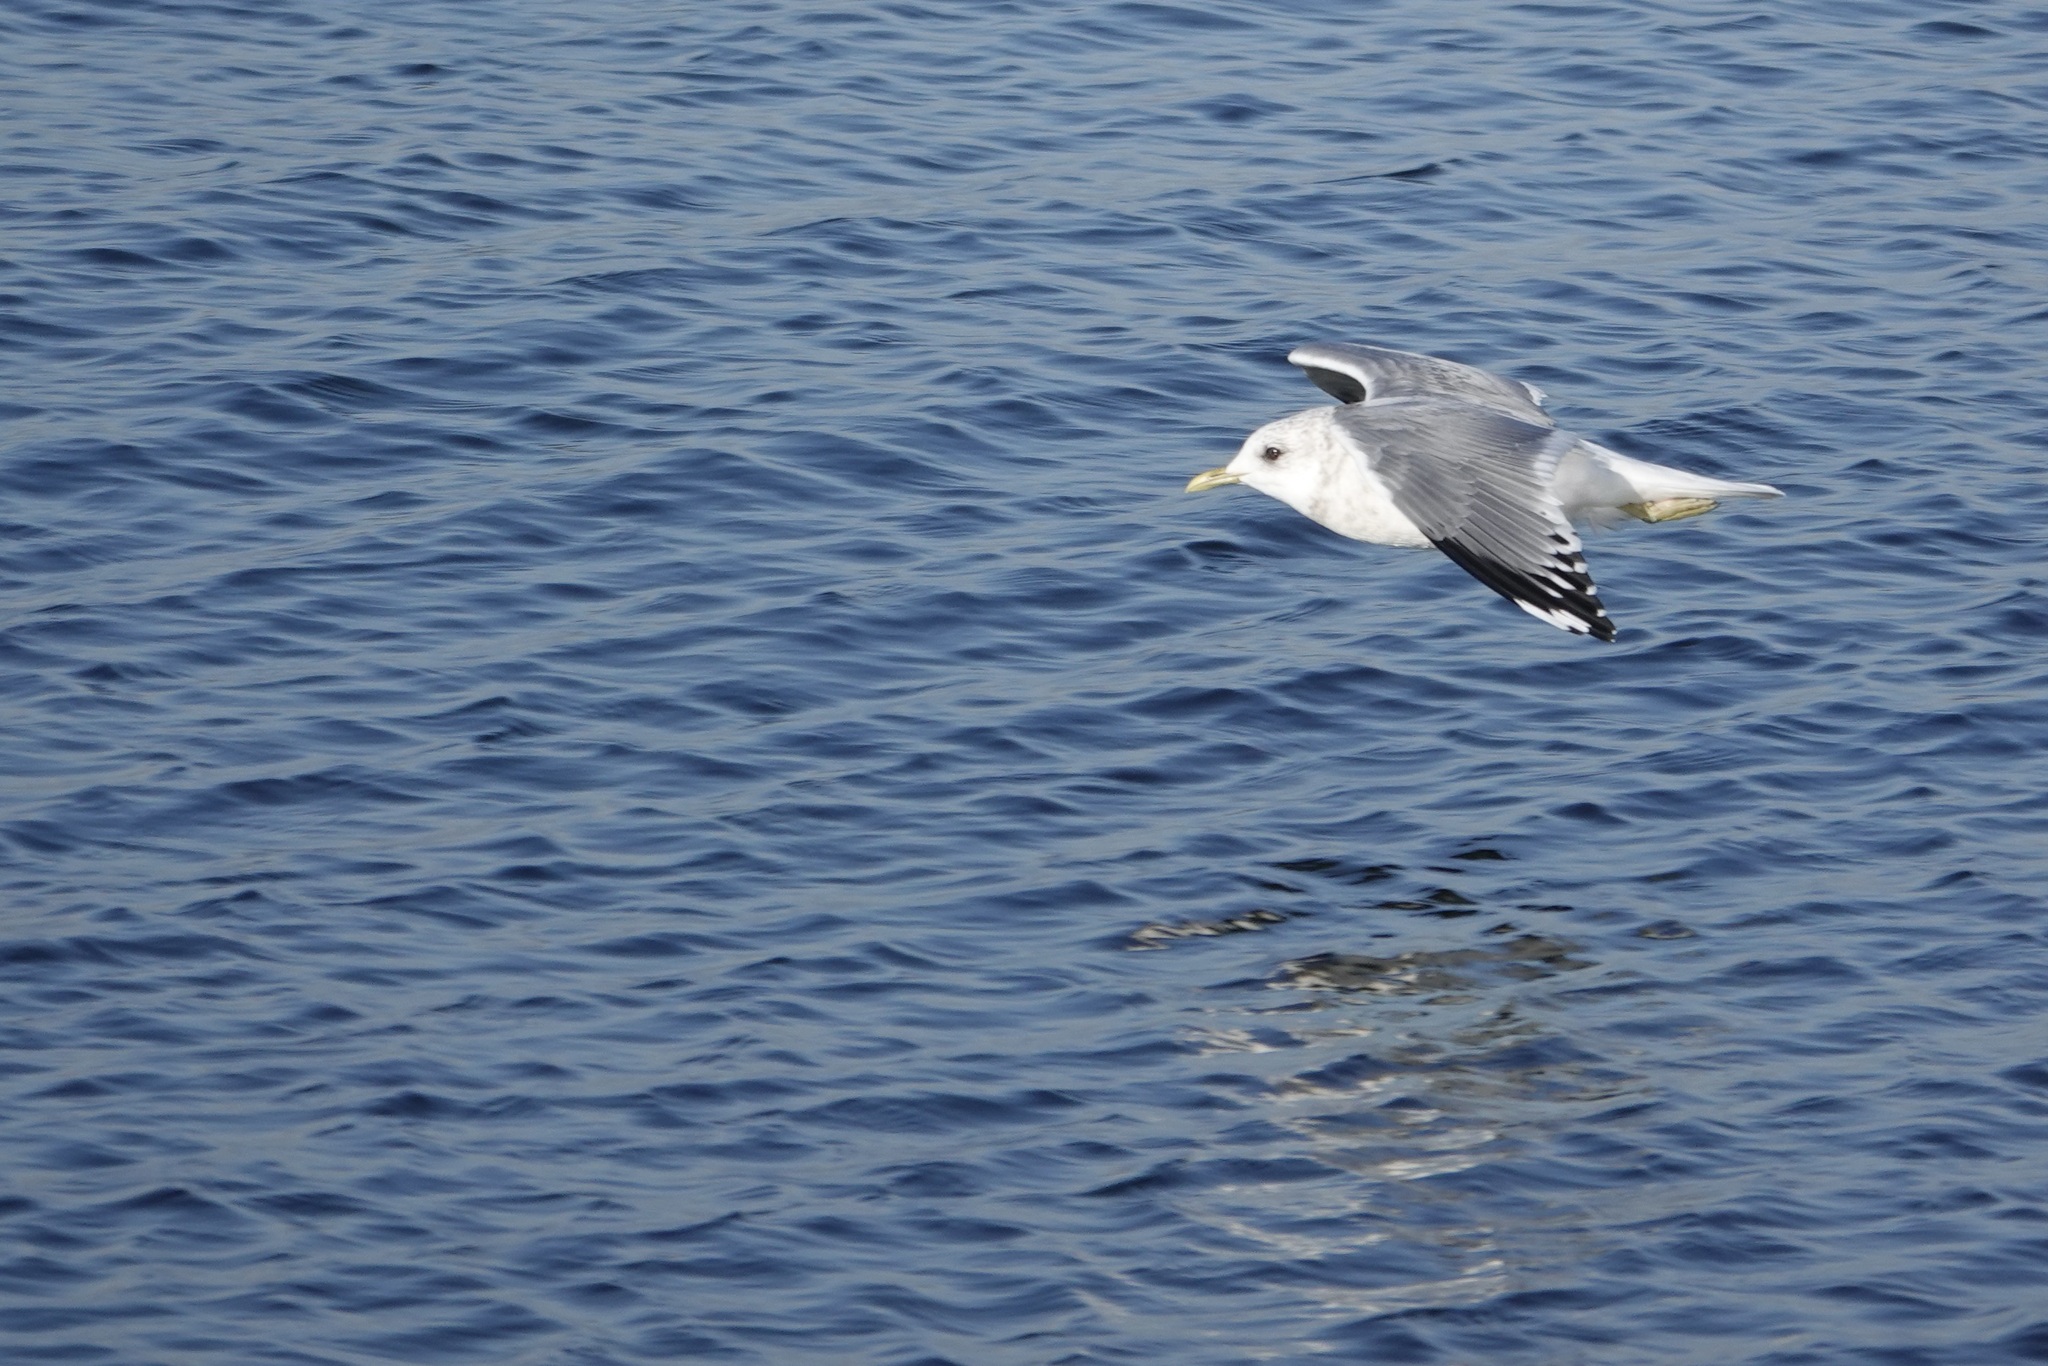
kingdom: Animalia
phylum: Chordata
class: Aves
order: Charadriiformes
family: Laridae
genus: Larus
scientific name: Larus brachyrhynchus
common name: Short-billed gull
